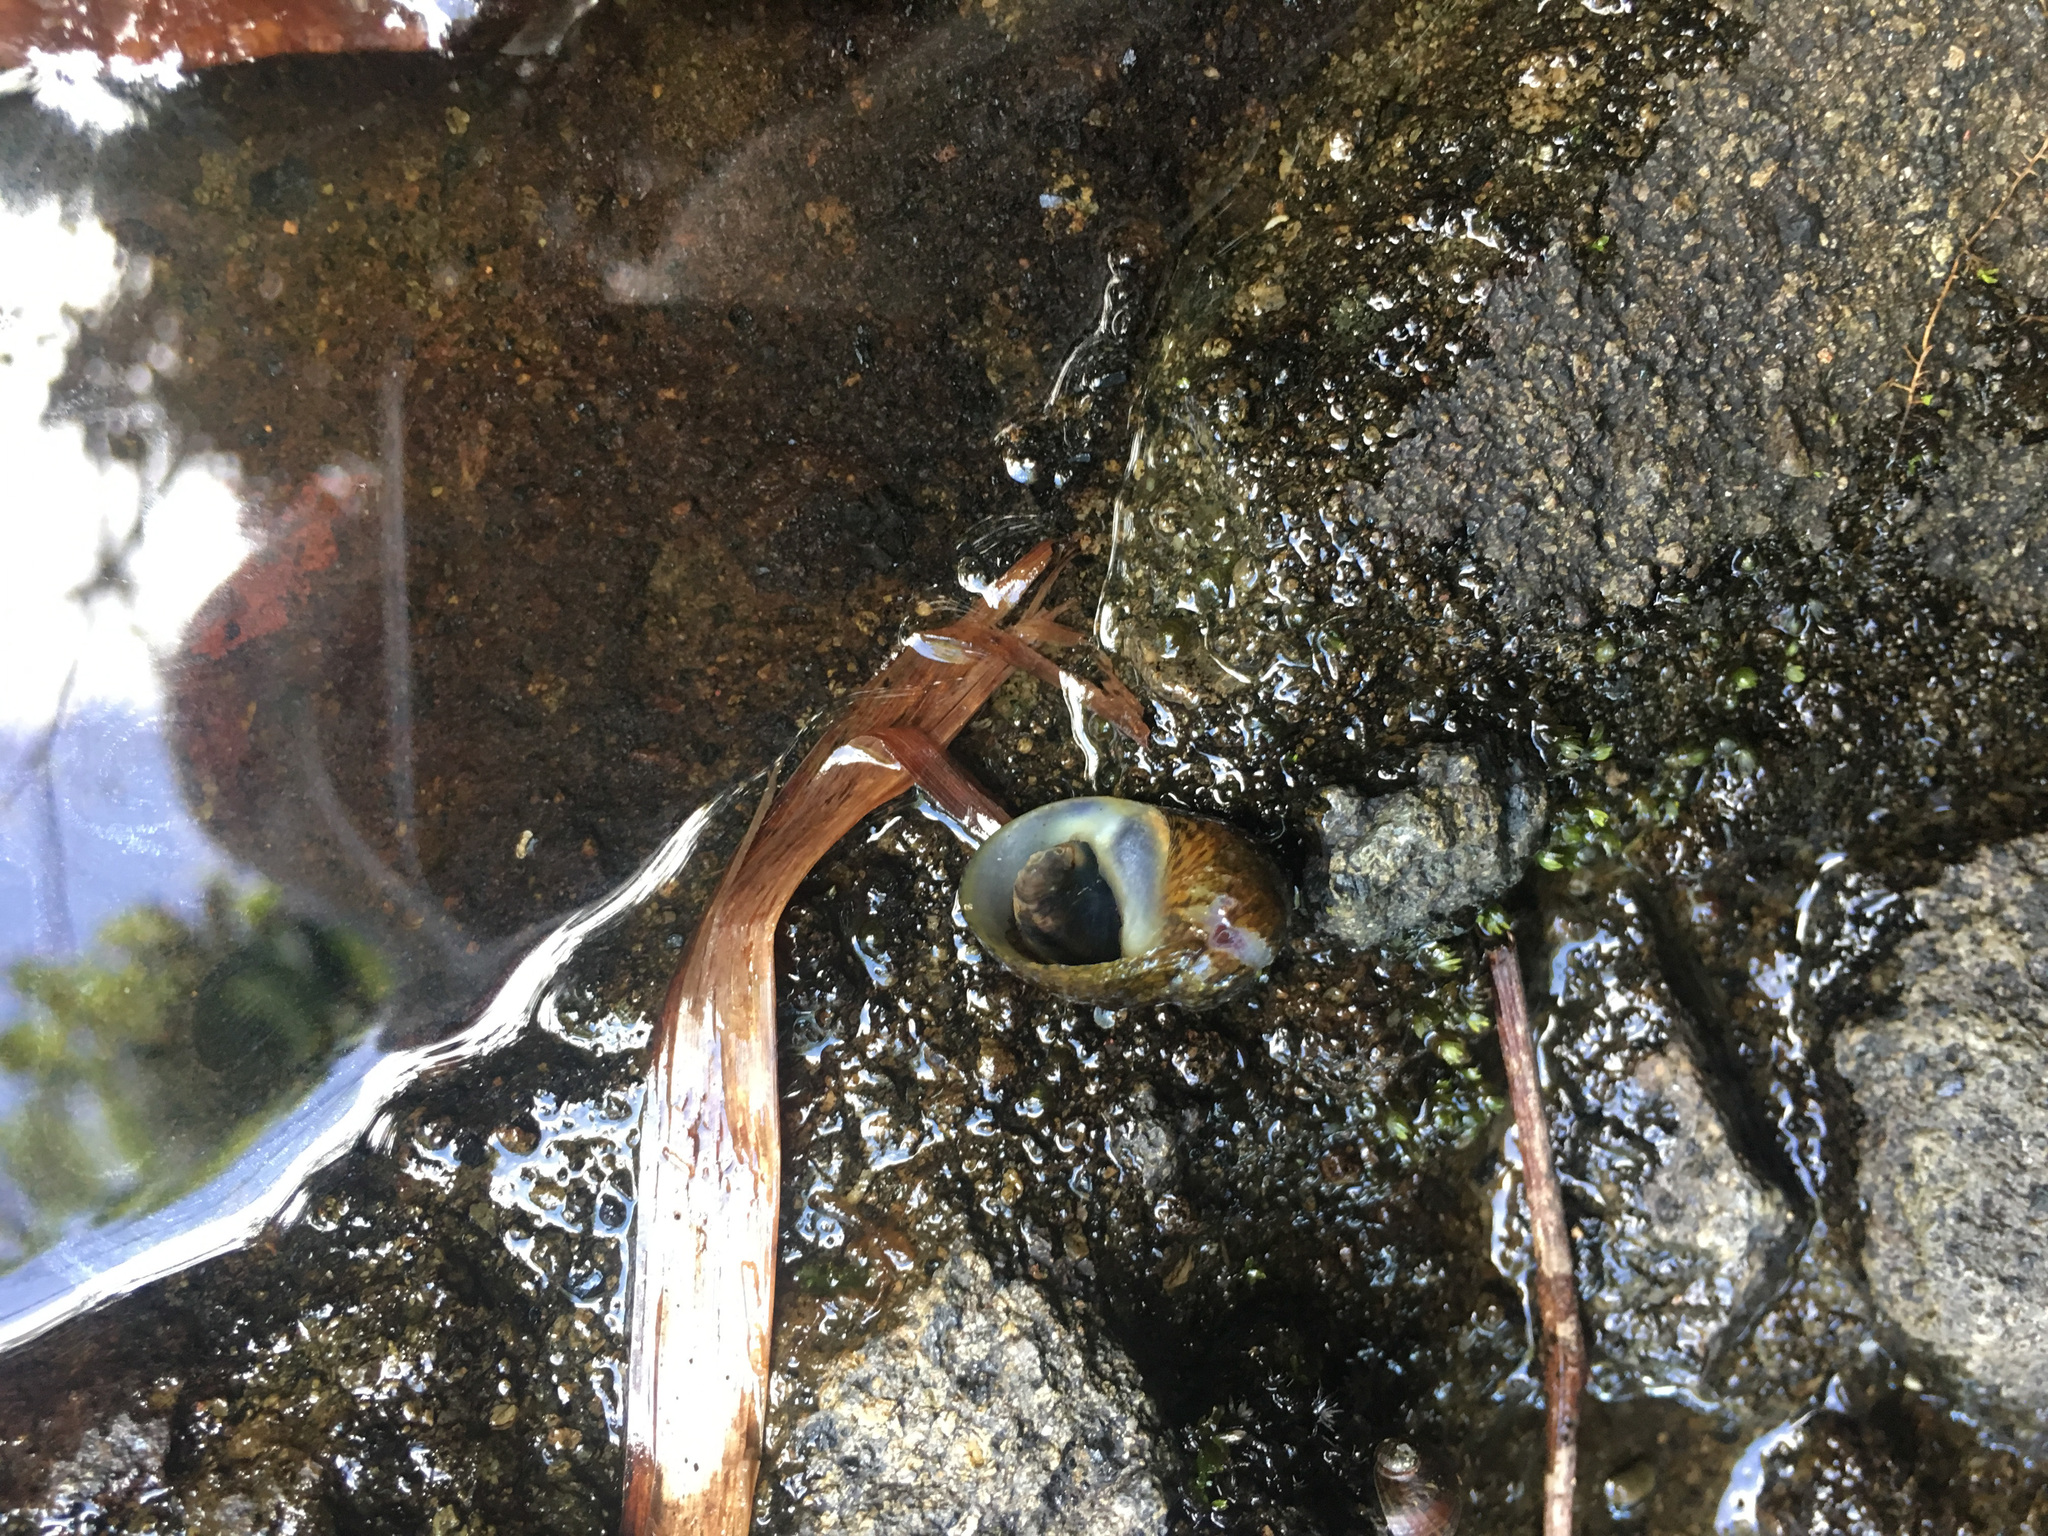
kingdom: Animalia
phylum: Mollusca
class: Gastropoda
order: Cycloneritida
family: Neritidae
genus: Neritodryas
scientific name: Neritodryas cornea
